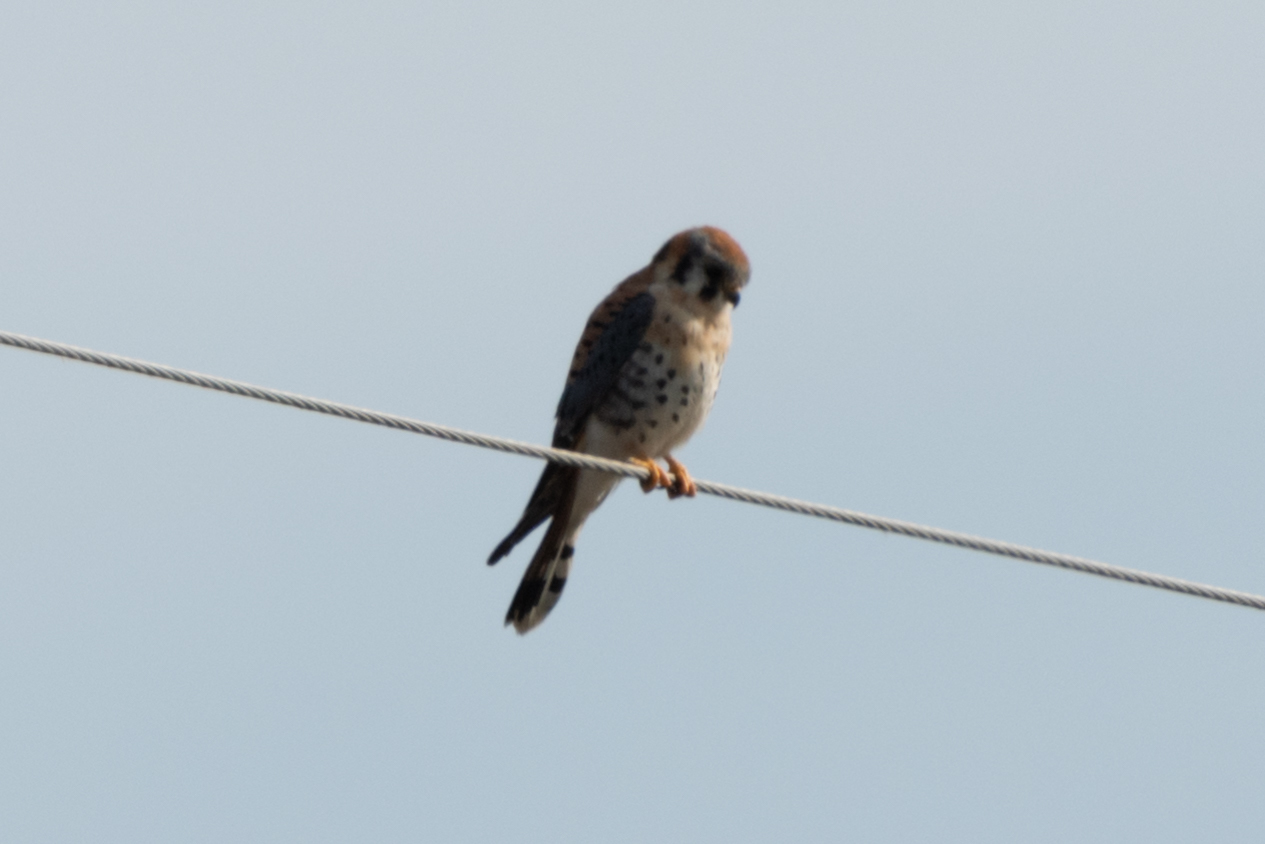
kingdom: Animalia
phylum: Chordata
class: Aves
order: Falconiformes
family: Falconidae
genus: Falco
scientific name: Falco sparverius
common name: American kestrel
